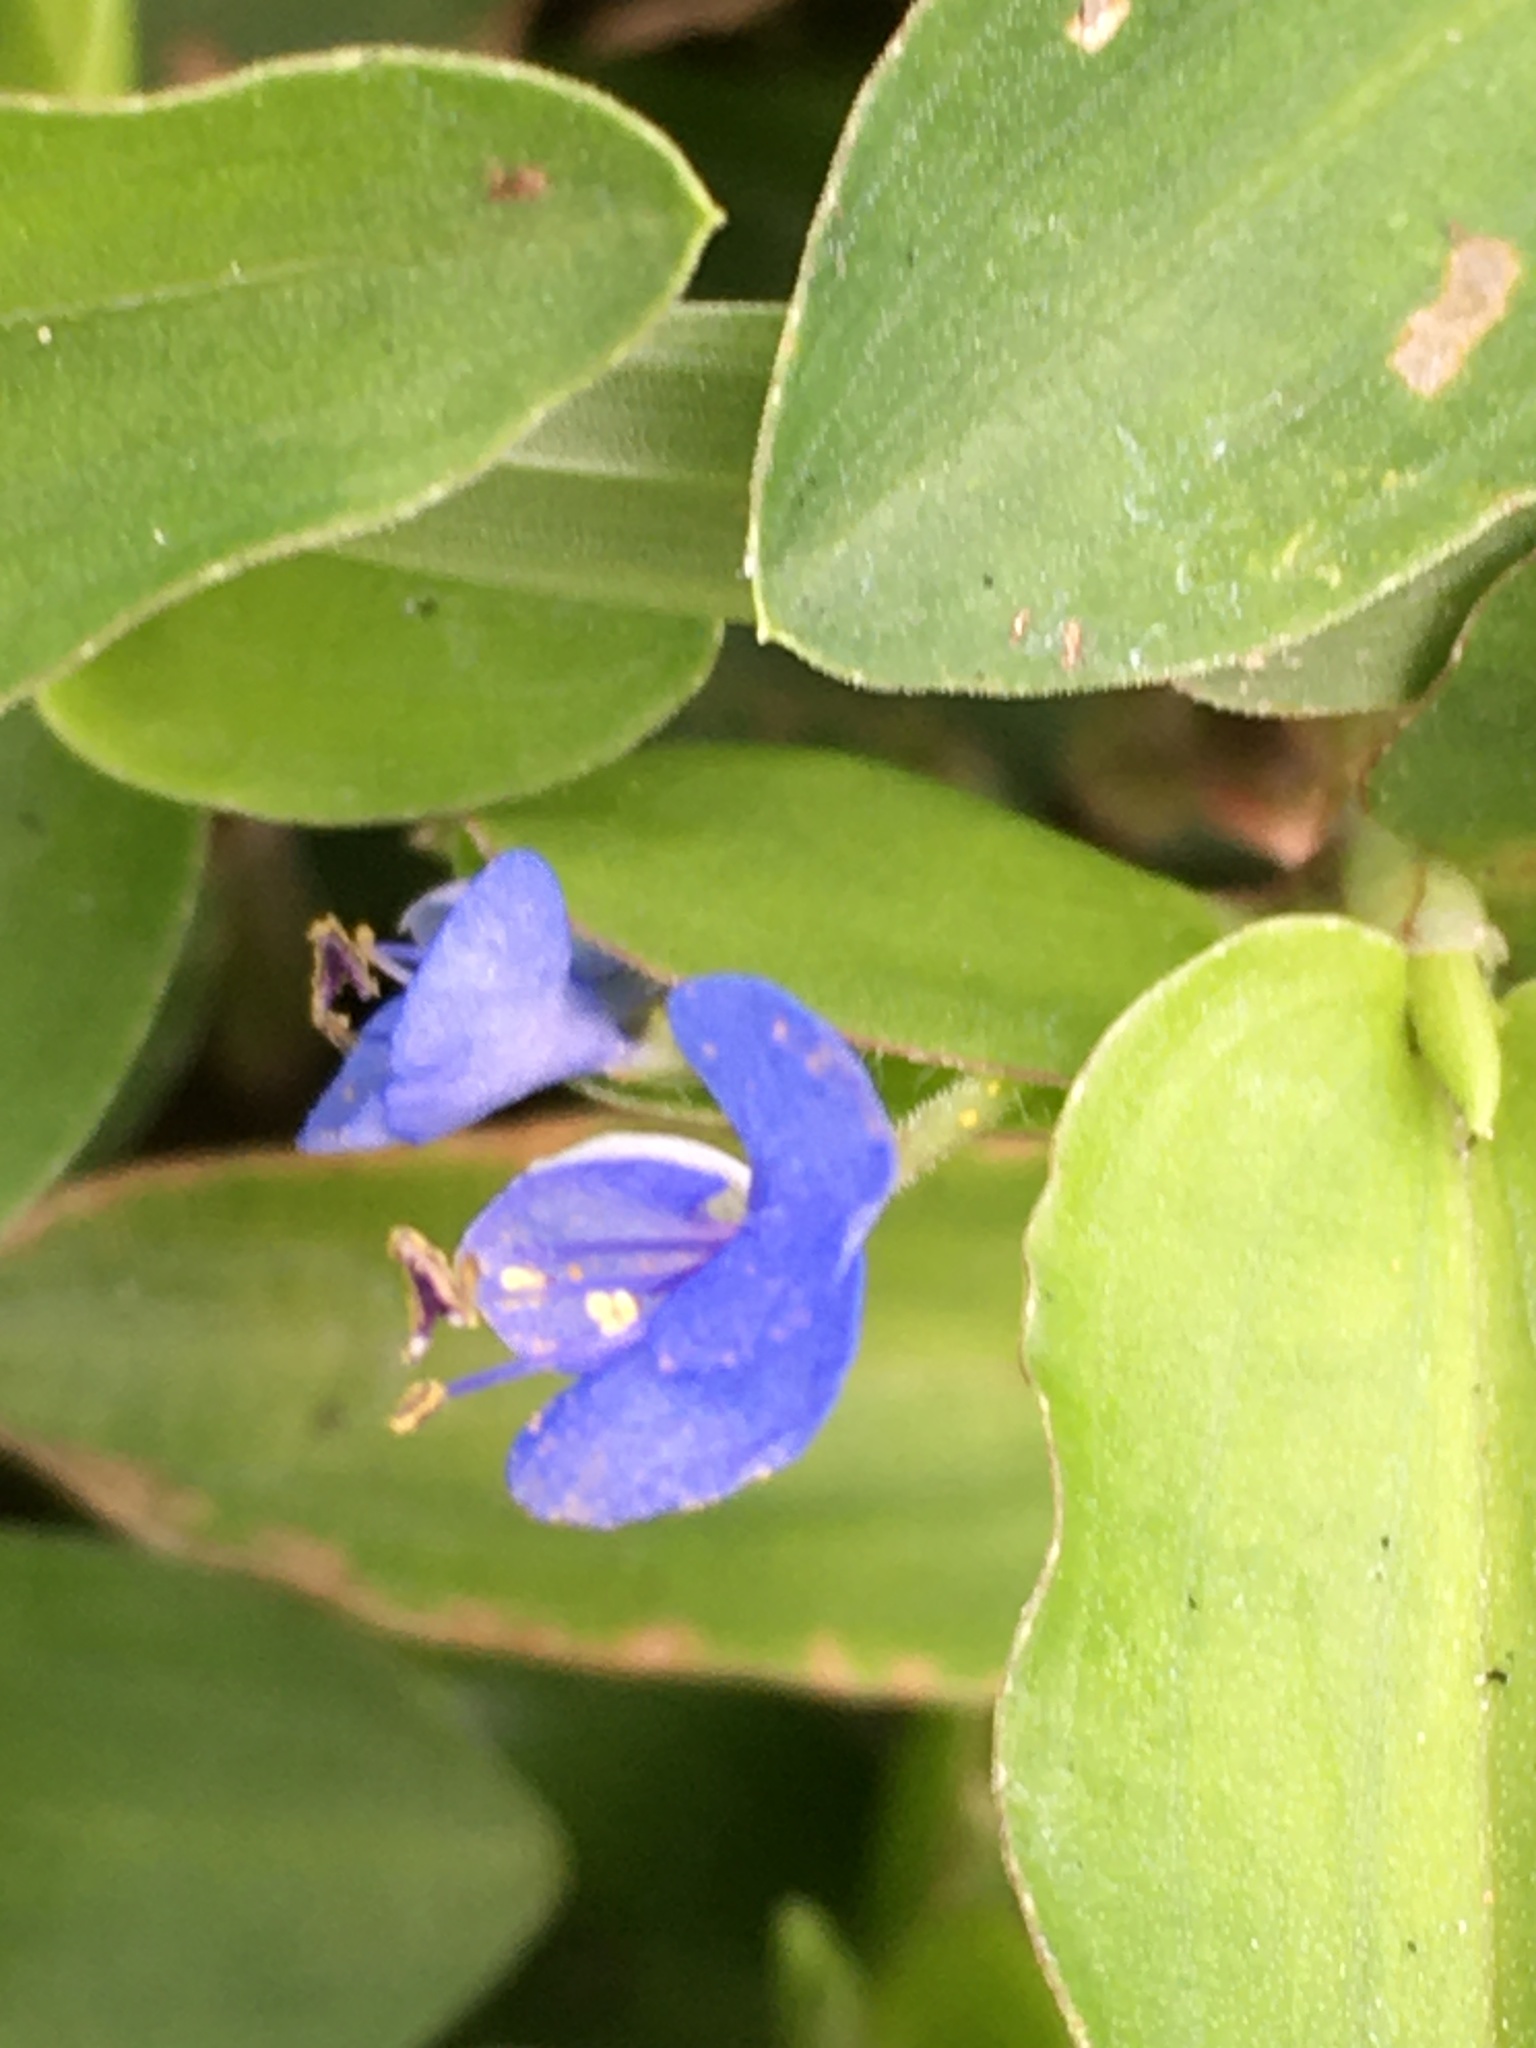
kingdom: Plantae
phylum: Tracheophyta
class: Liliopsida
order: Commelinales
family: Commelinaceae
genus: Commelina
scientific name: Commelina diffusa
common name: Climbing dayflower
